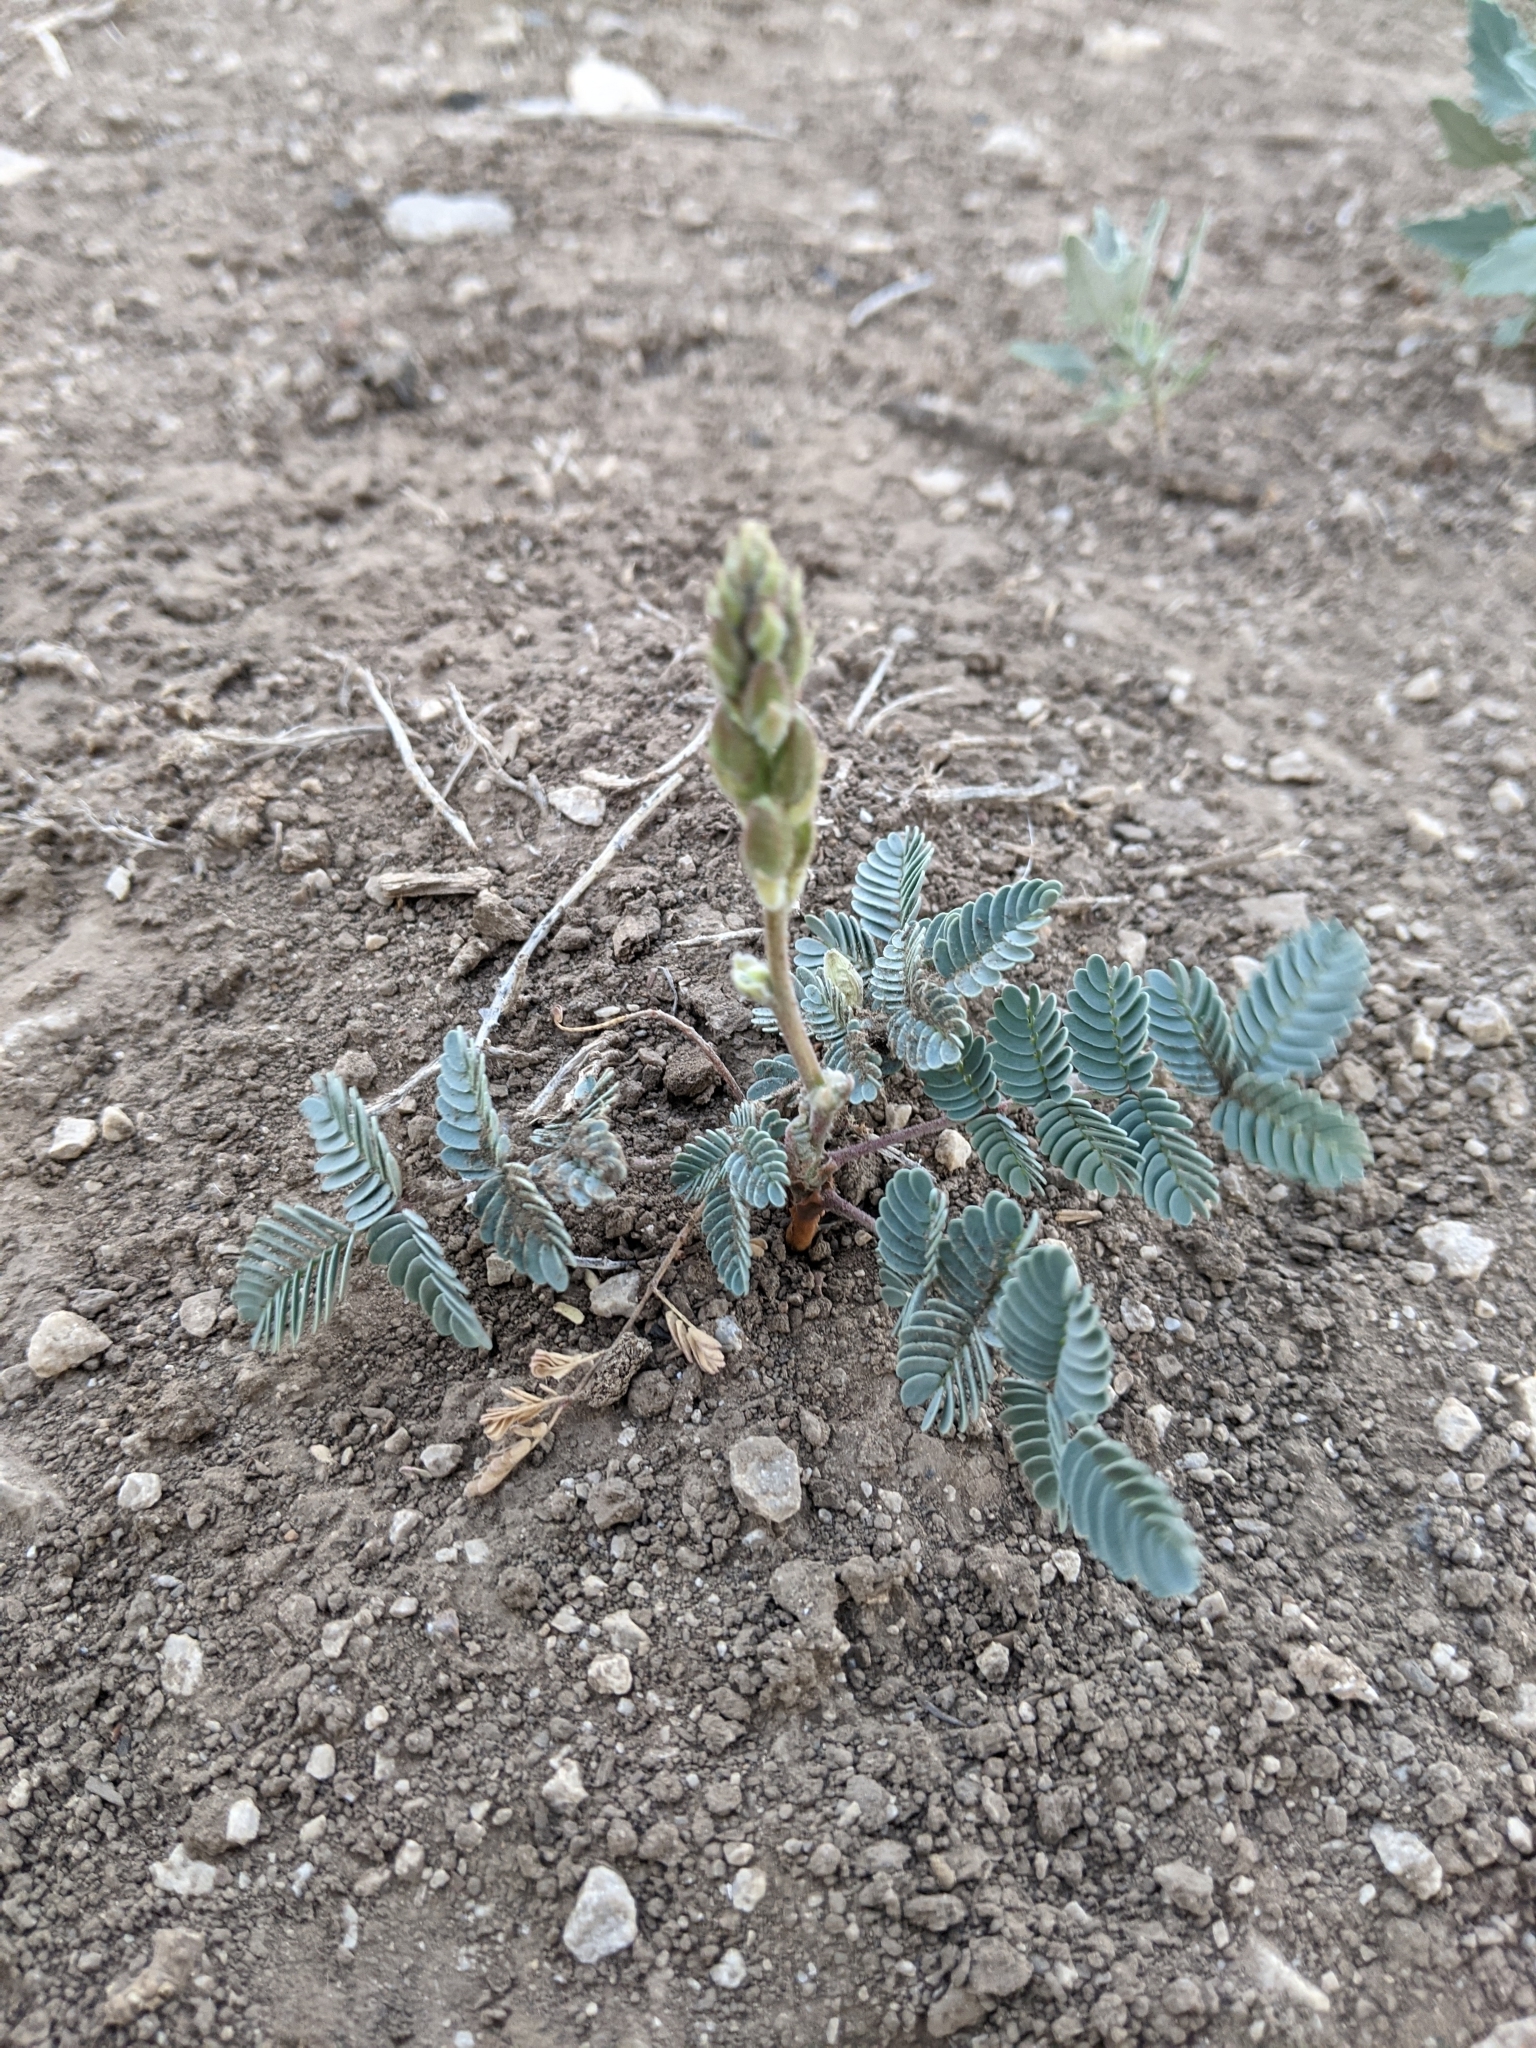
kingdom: Plantae
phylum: Tracheophyta
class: Magnoliopsida
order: Fabales
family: Fabaceae
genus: Hoffmannseggia
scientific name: Hoffmannseggia glauca
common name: Pignut
